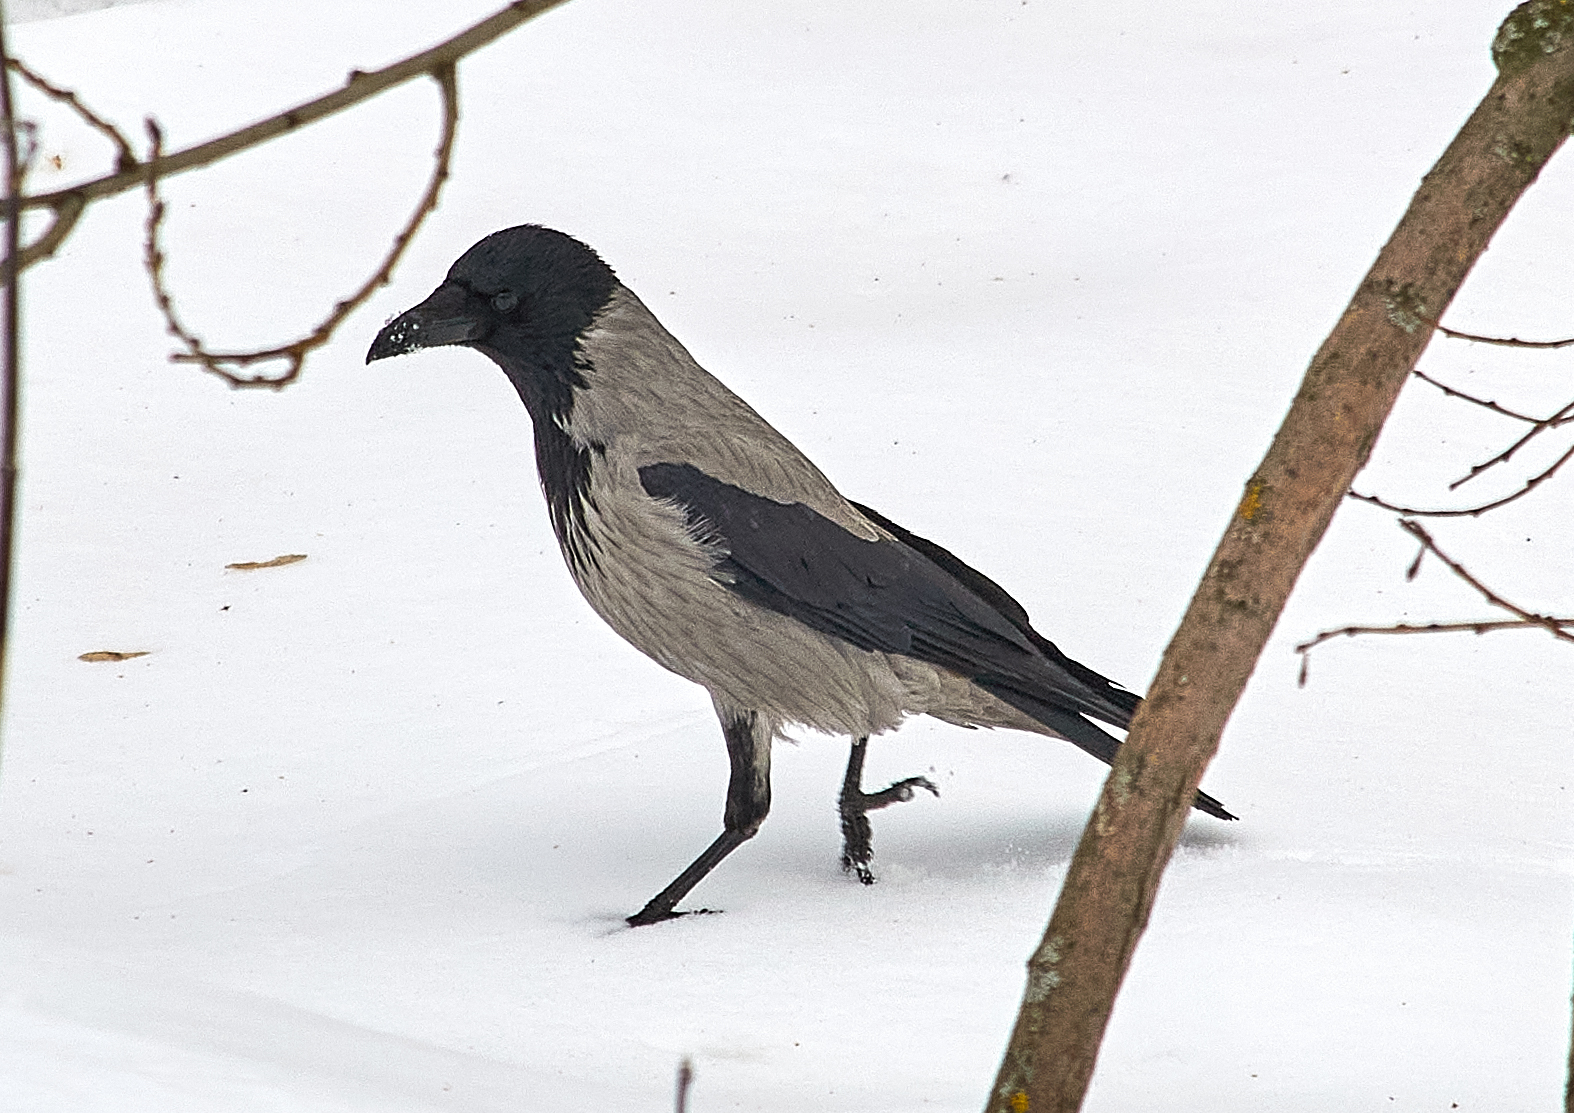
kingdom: Animalia
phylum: Chordata
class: Aves
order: Passeriformes
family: Corvidae
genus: Corvus
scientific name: Corvus cornix
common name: Hooded crow
